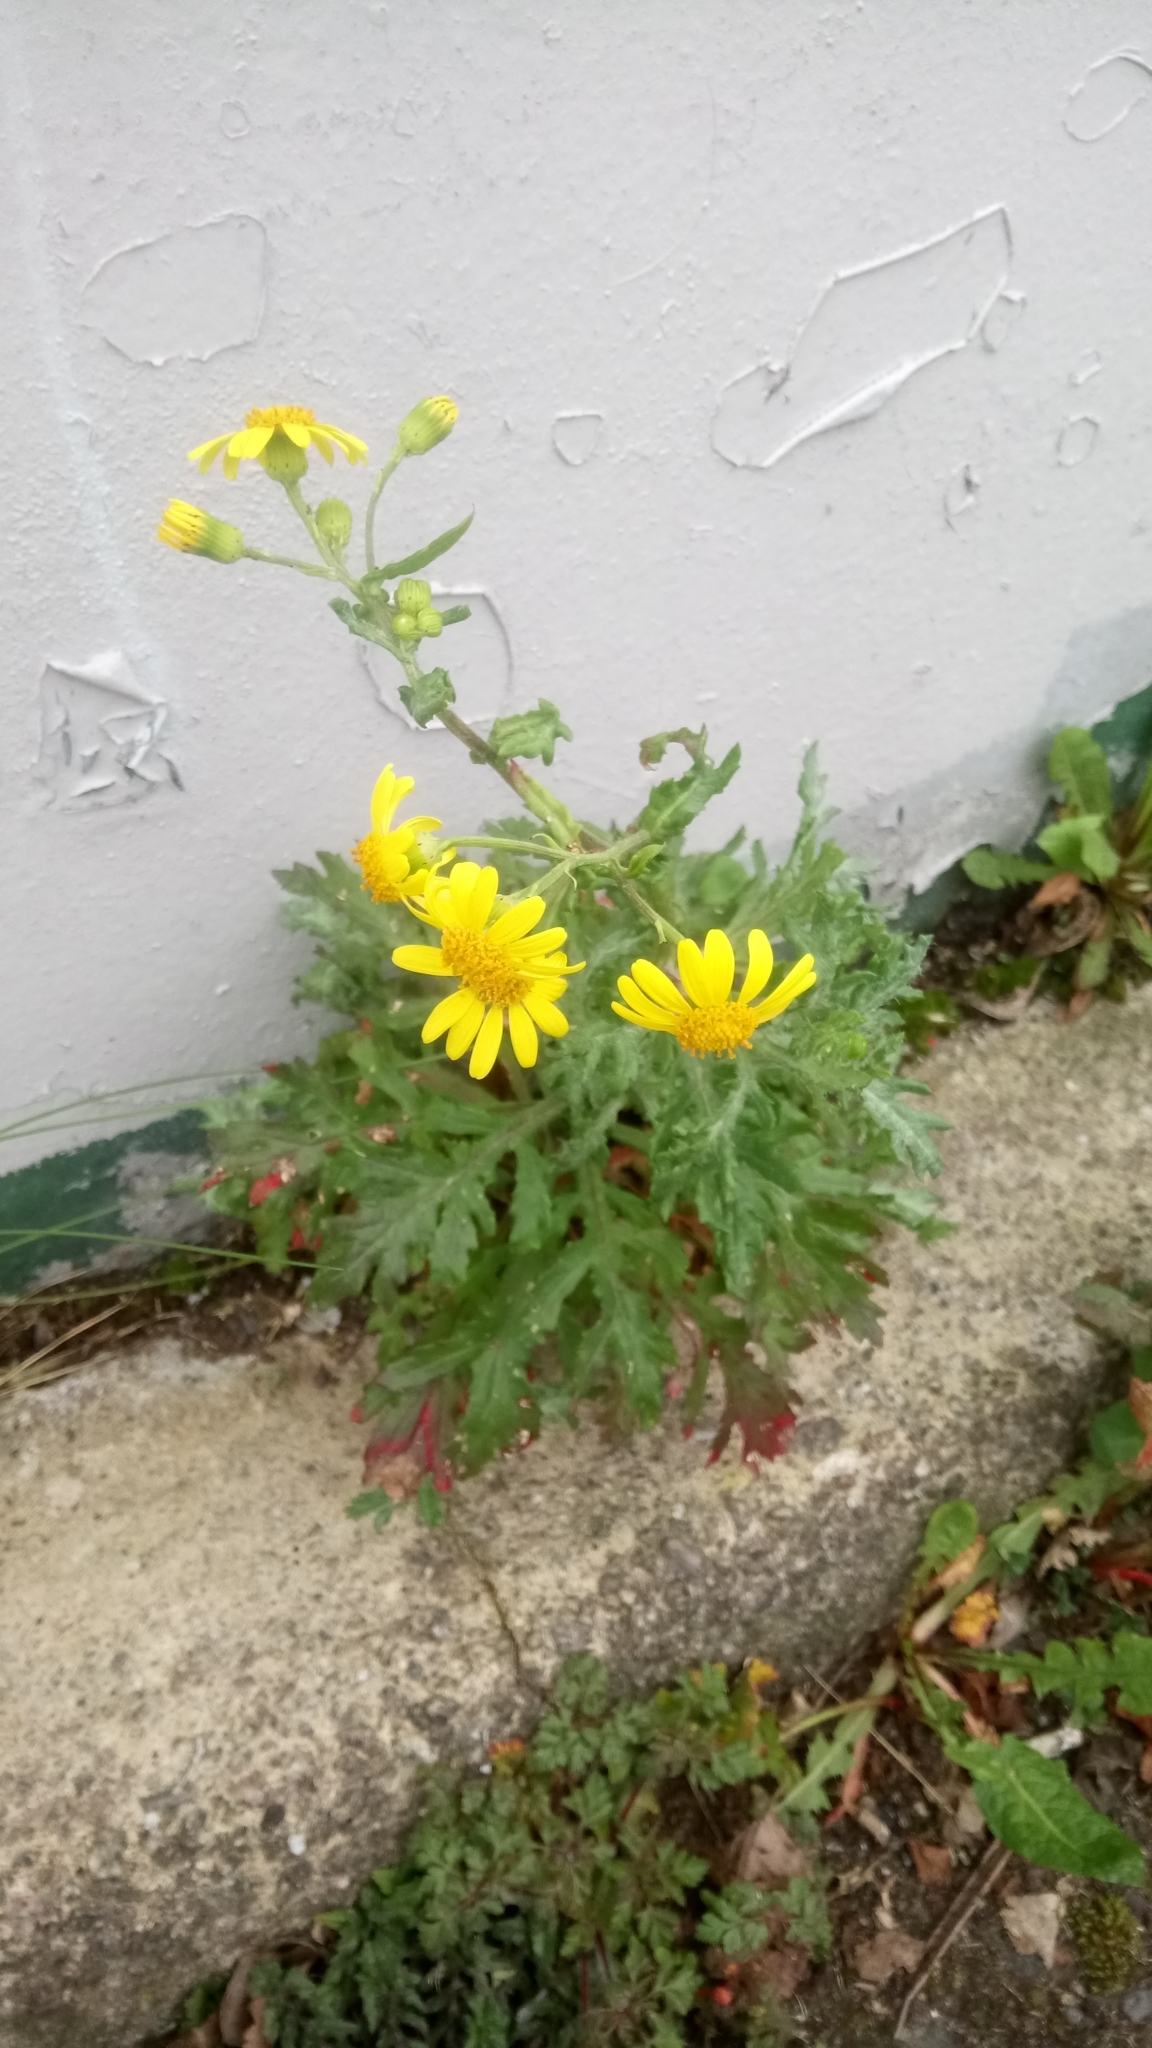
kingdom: Plantae
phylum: Tracheophyta
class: Magnoliopsida
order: Asterales
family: Asteraceae
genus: Senecio
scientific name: Senecio squalidus
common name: Oxford ragwort
